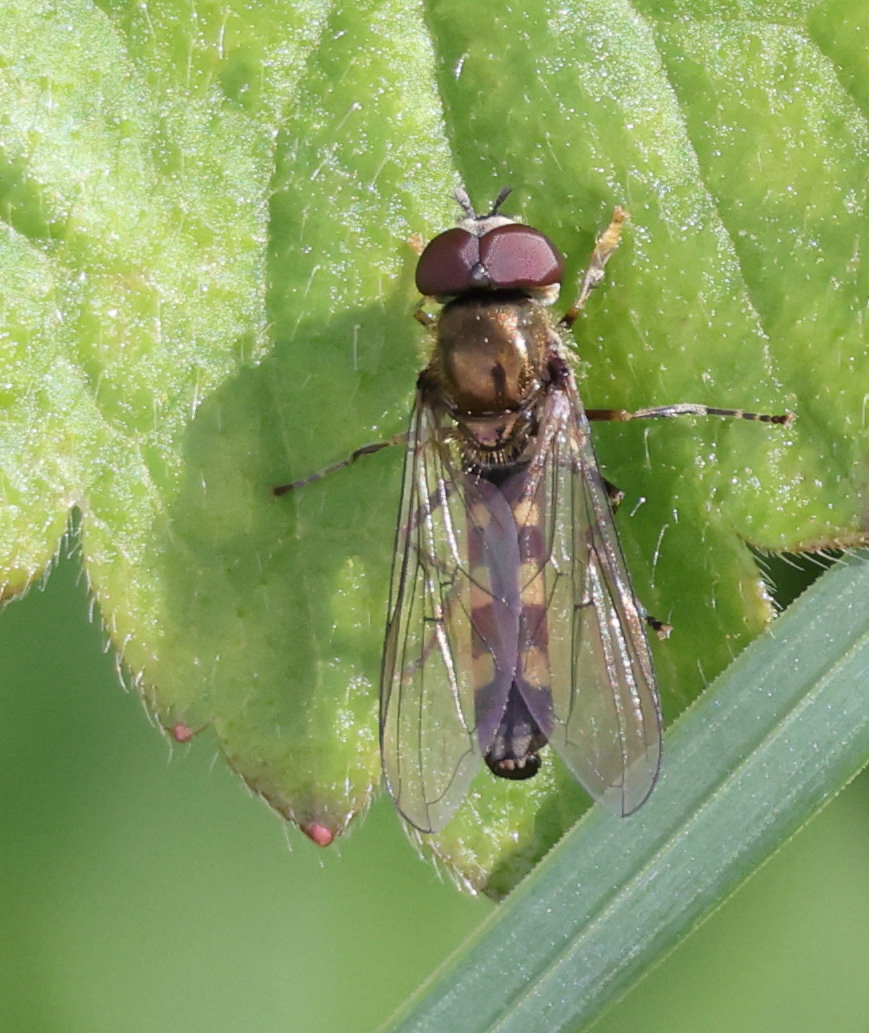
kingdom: Animalia
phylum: Arthropoda
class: Insecta
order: Diptera
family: Syrphidae
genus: Platycheirus
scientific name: Platycheirus scutatus
